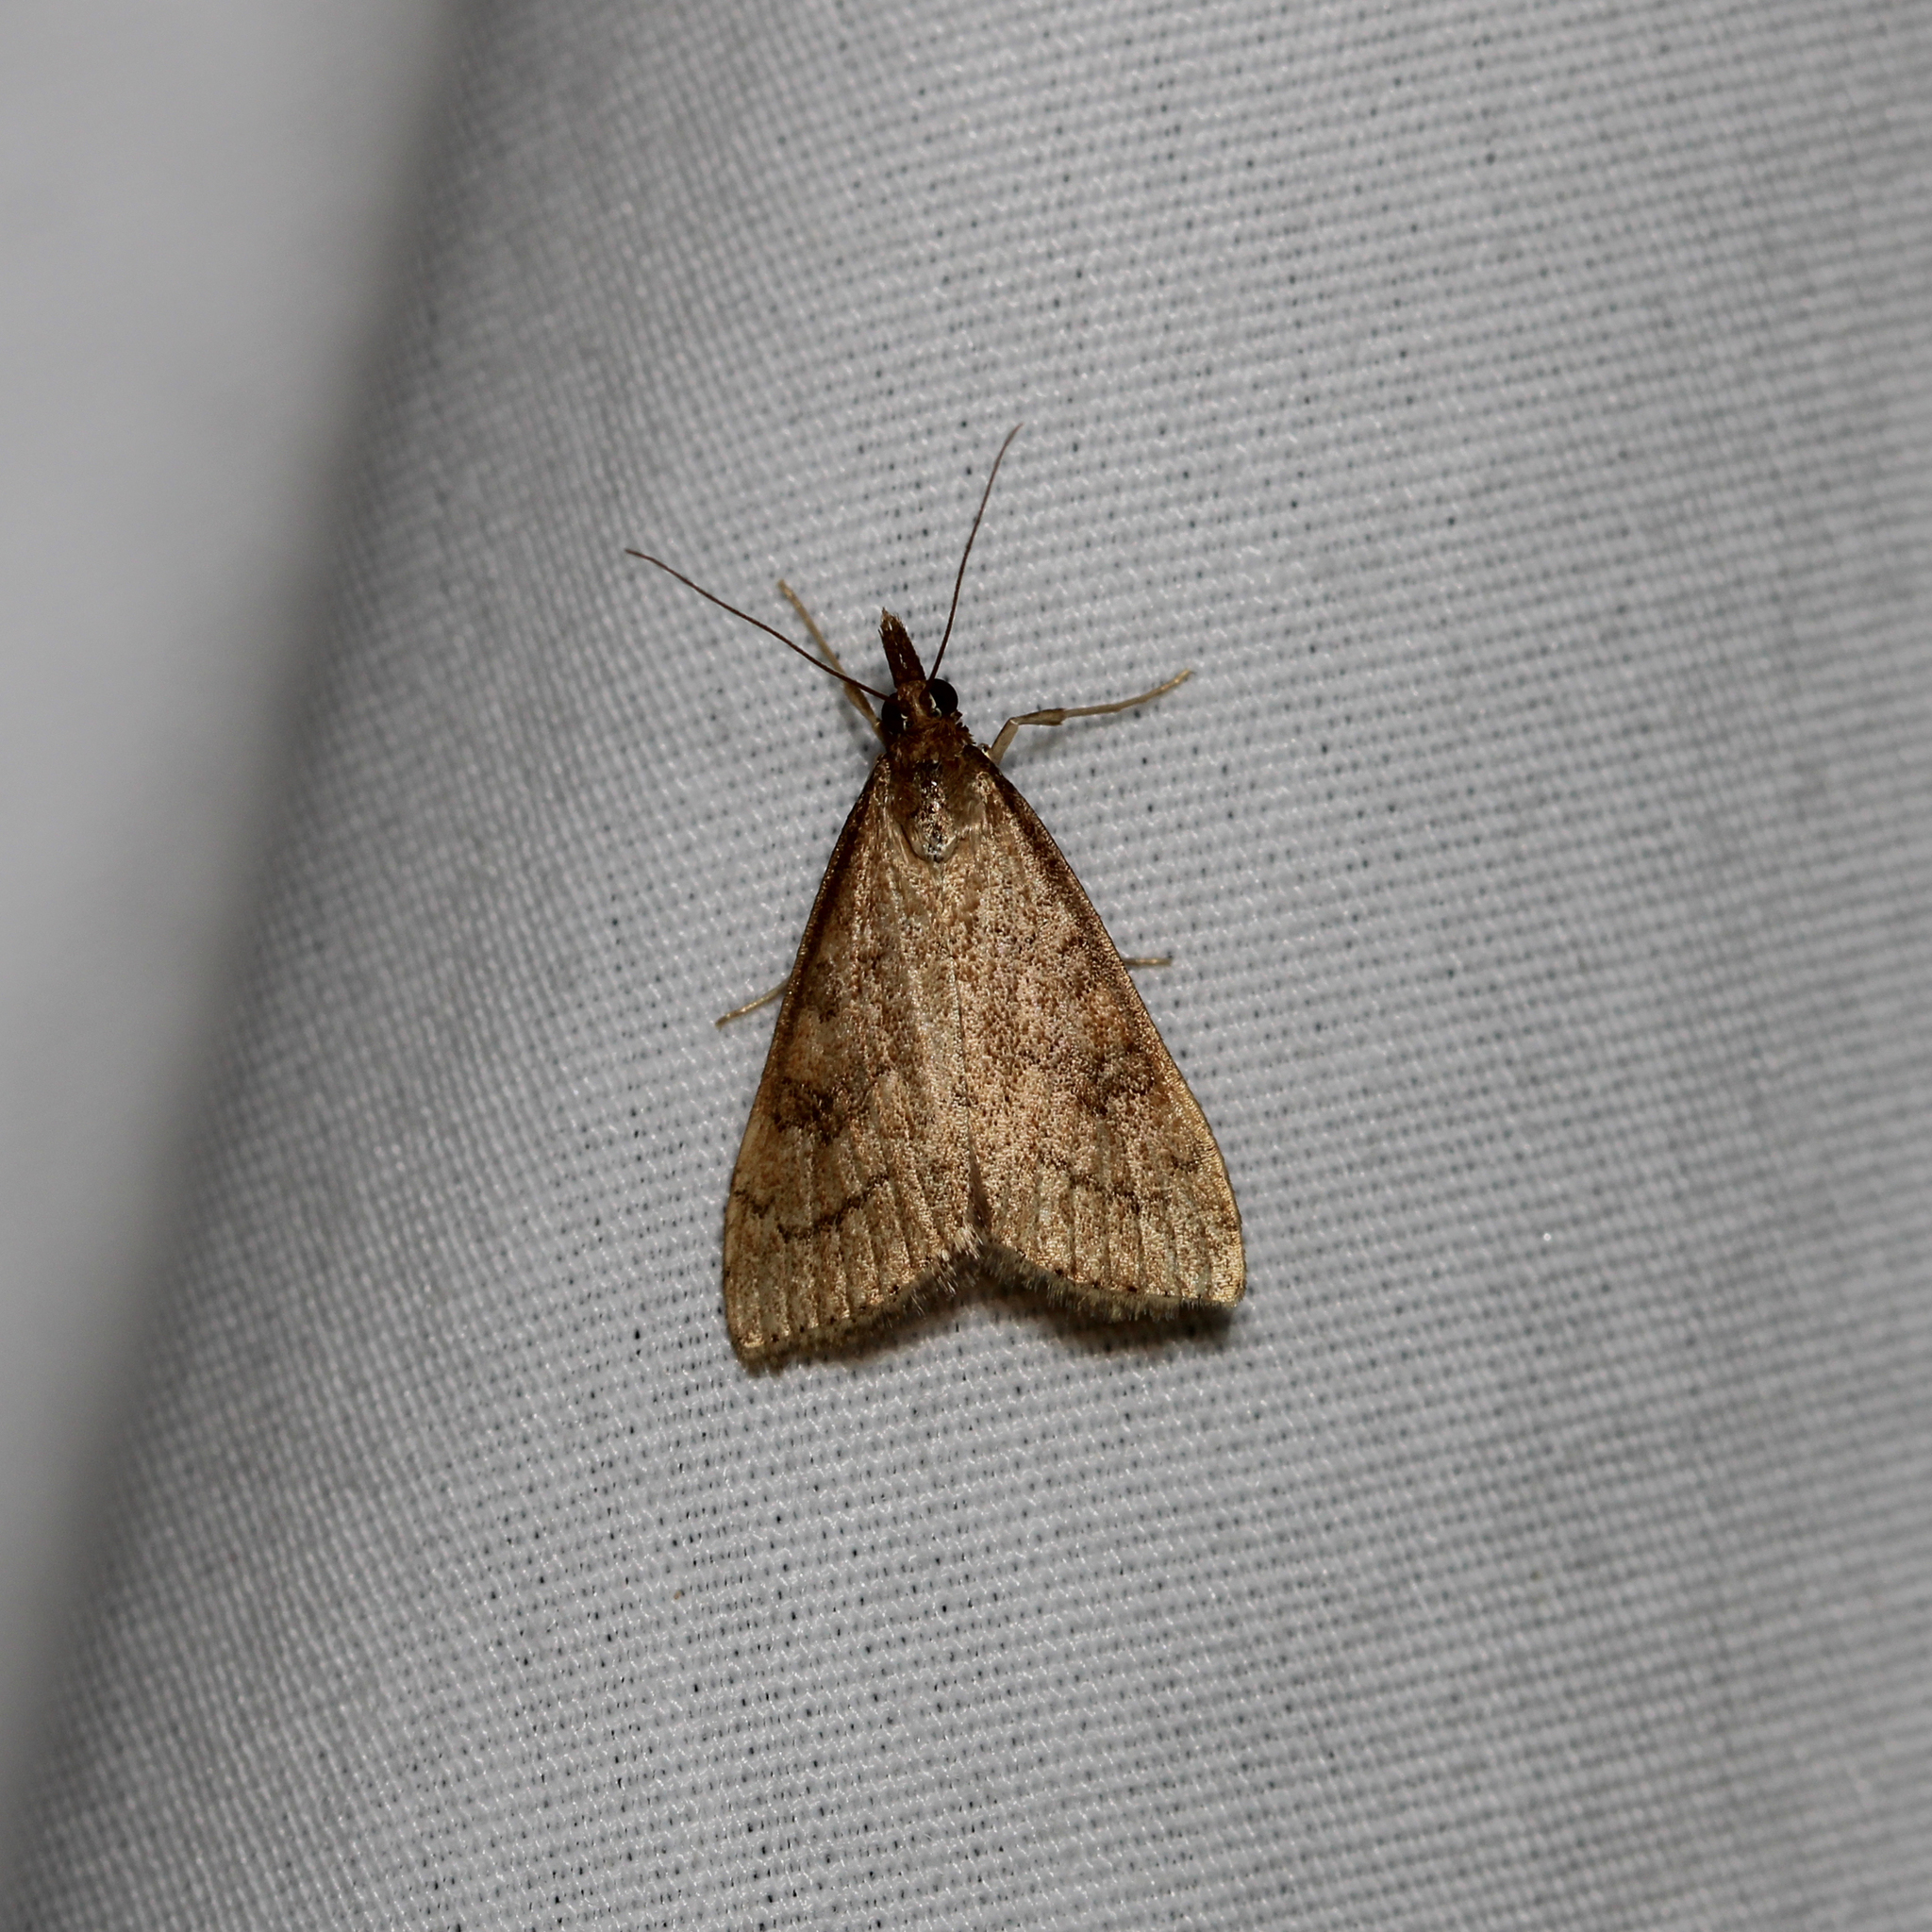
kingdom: Animalia
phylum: Arthropoda
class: Insecta
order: Lepidoptera
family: Crambidae
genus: Udea
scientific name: Udea rubigalis
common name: Celery leaftier moth
